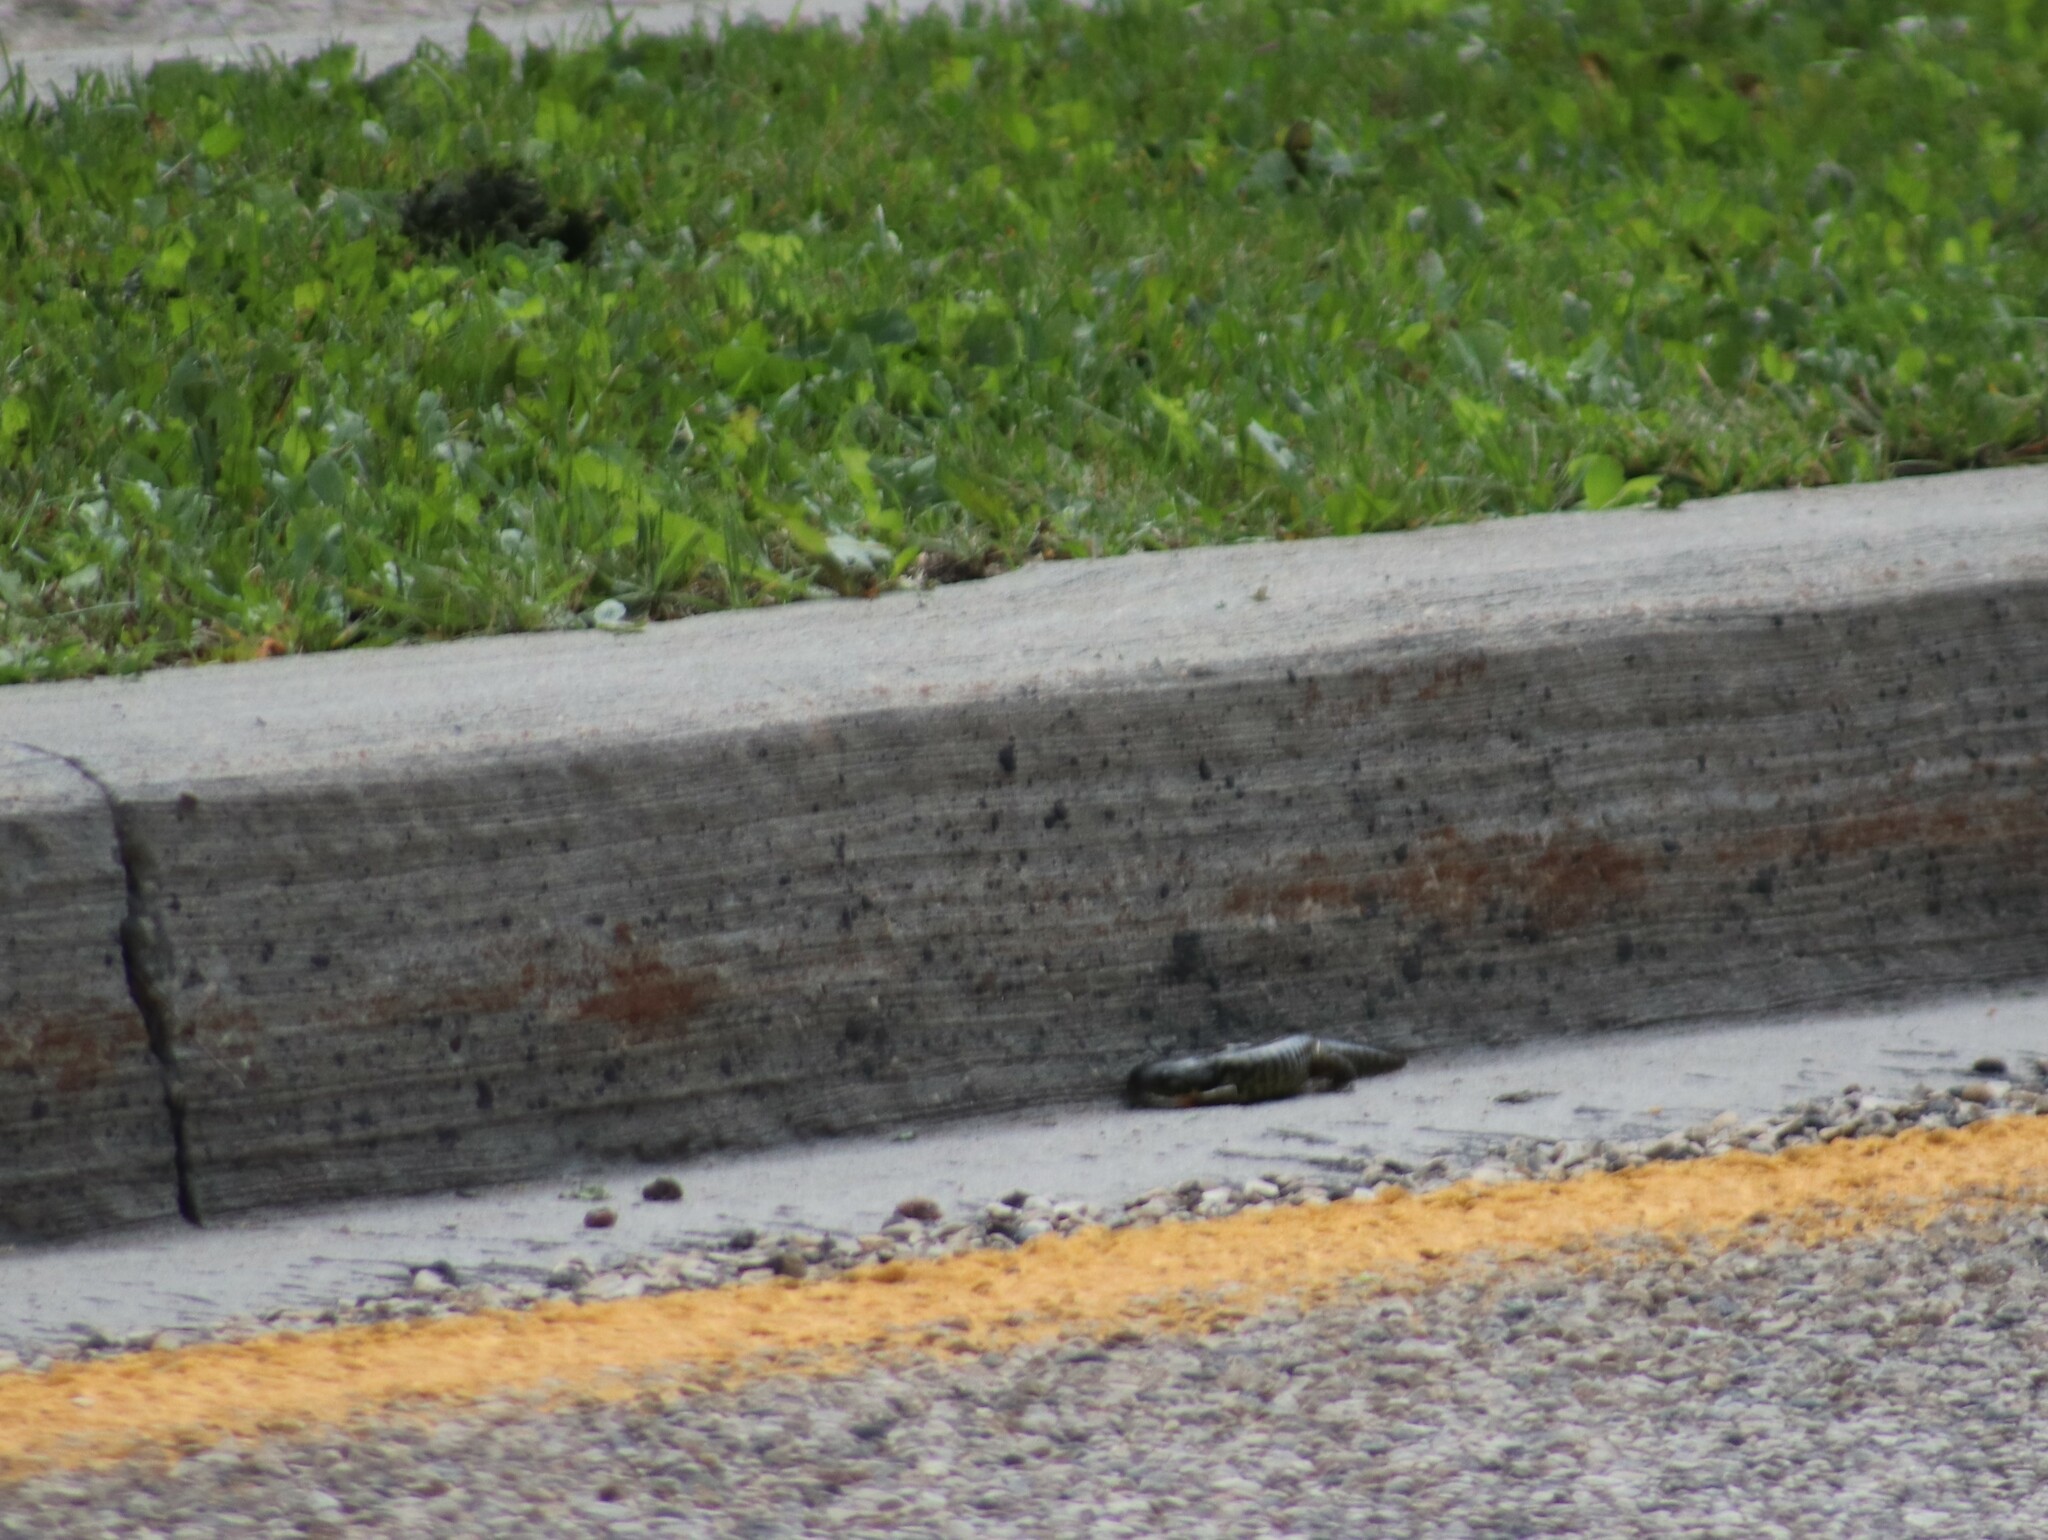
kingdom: Animalia
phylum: Chordata
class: Amphibia
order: Caudata
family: Ambystomatidae
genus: Ambystoma
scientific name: Ambystoma mavortium
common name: Western tiger salamander
